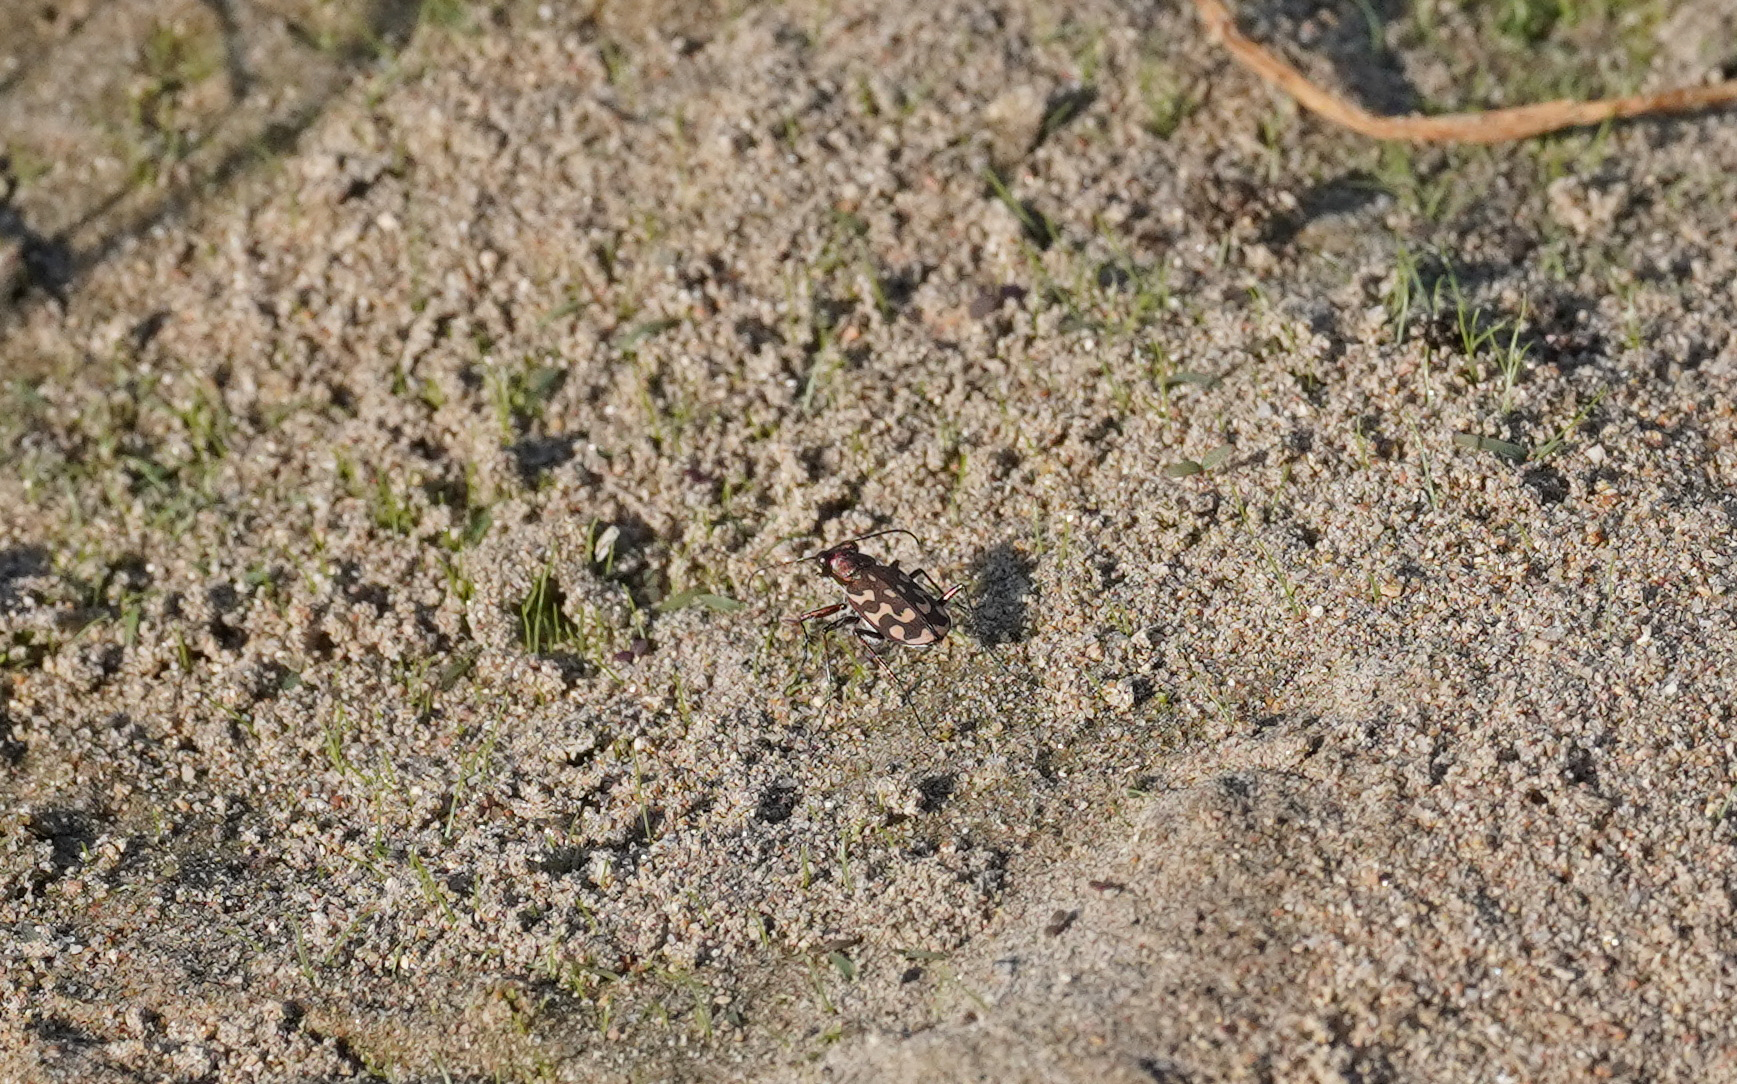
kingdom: Animalia
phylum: Arthropoda
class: Insecta
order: Coleoptera
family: Carabidae
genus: Lophyra
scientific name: Lophyra flexuosa
